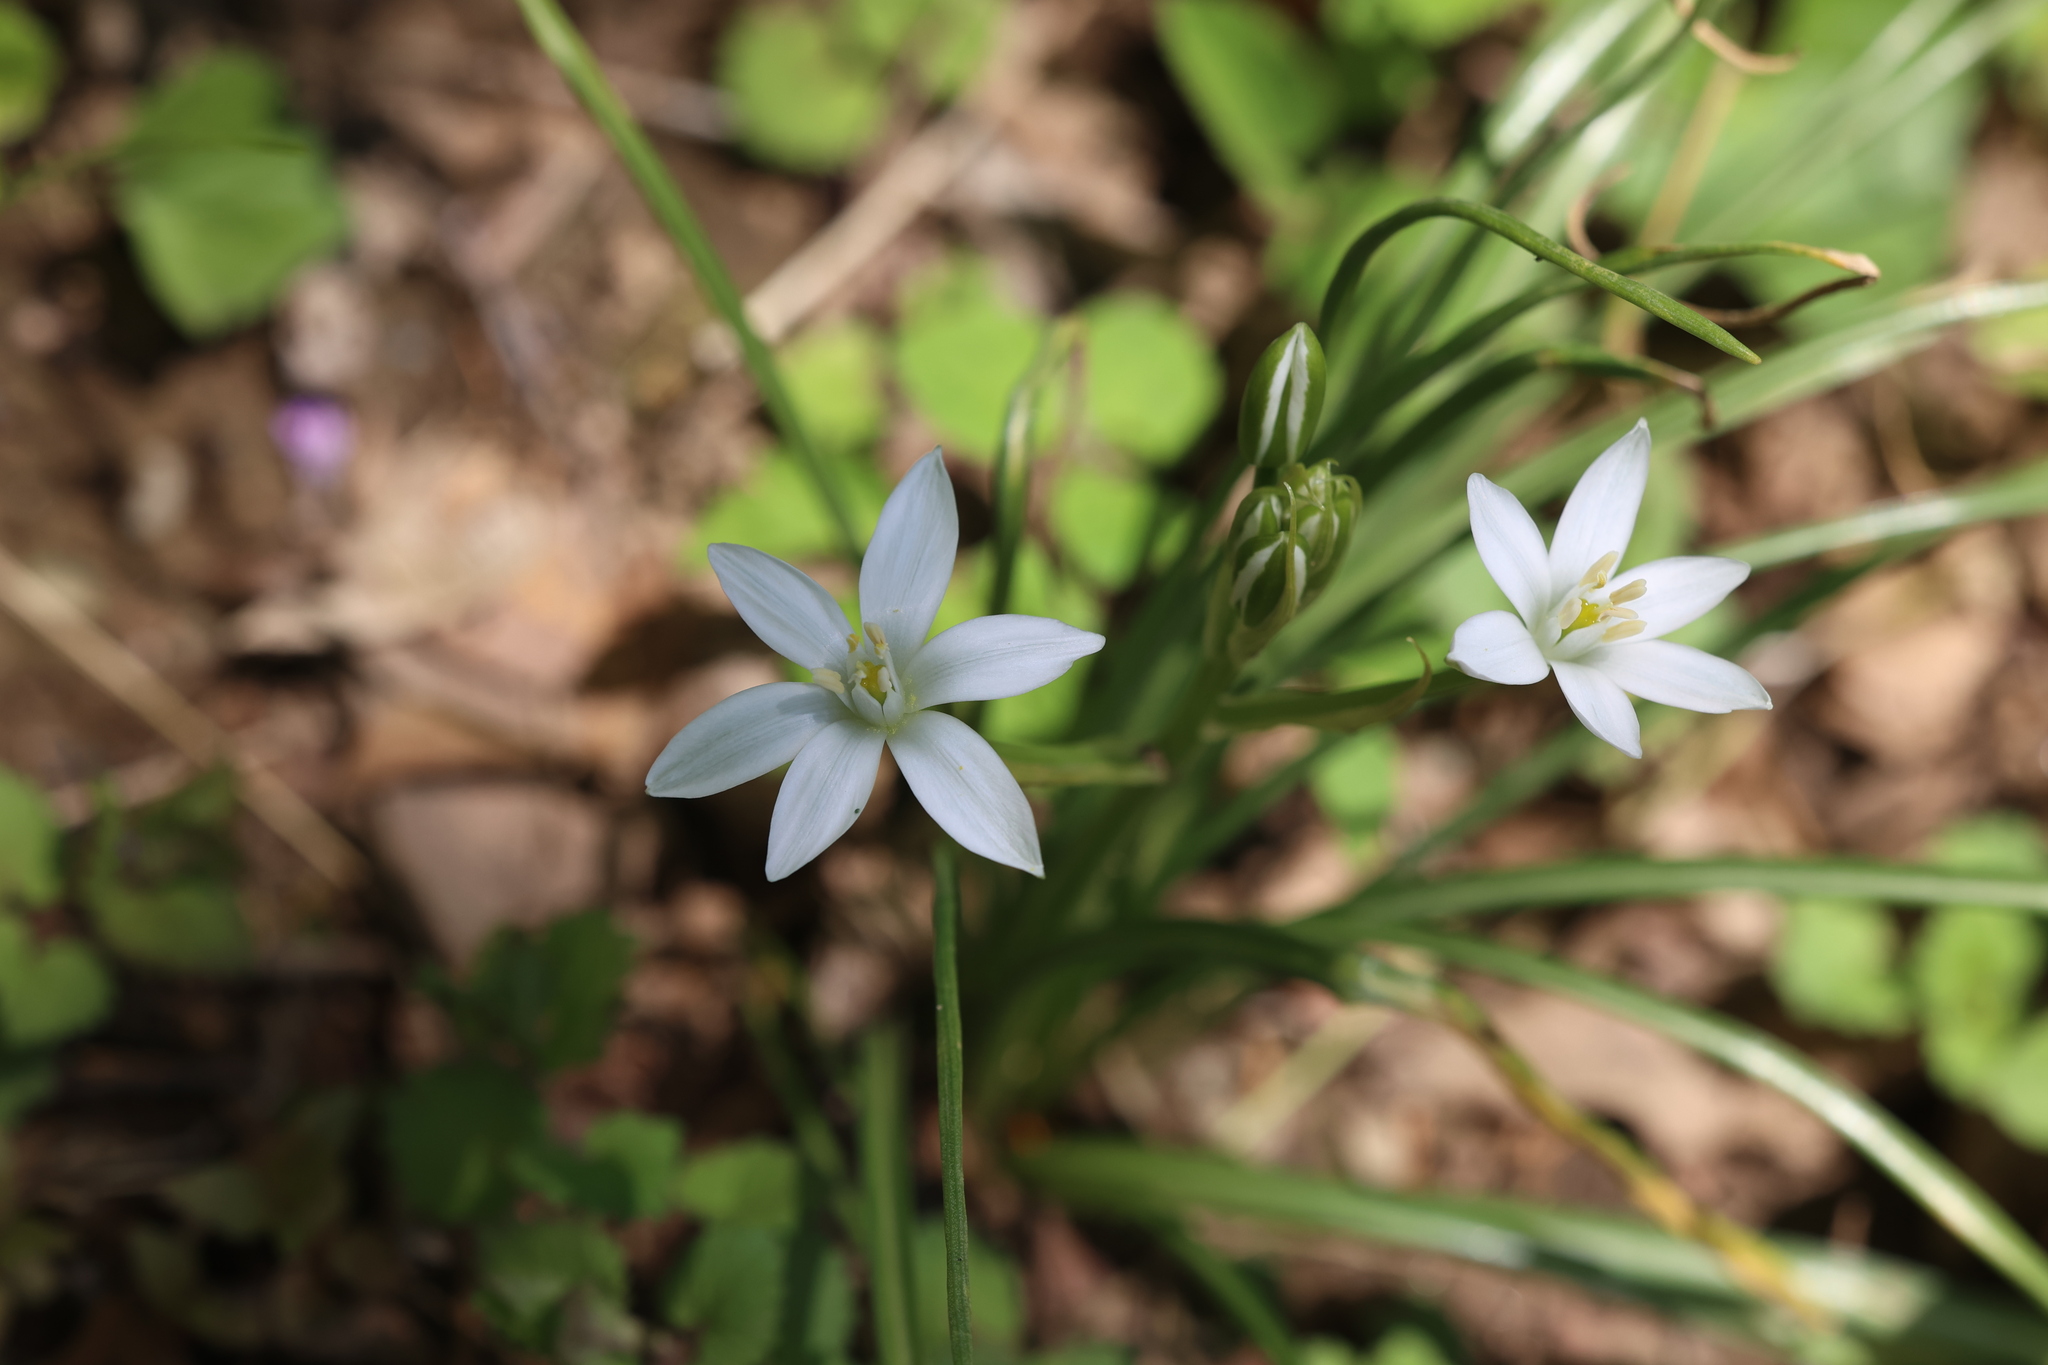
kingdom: Plantae
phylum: Tracheophyta
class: Liliopsida
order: Asparagales
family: Asparagaceae
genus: Ornithogalum
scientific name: Ornithogalum umbellatum
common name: Garden star-of-bethlehem
